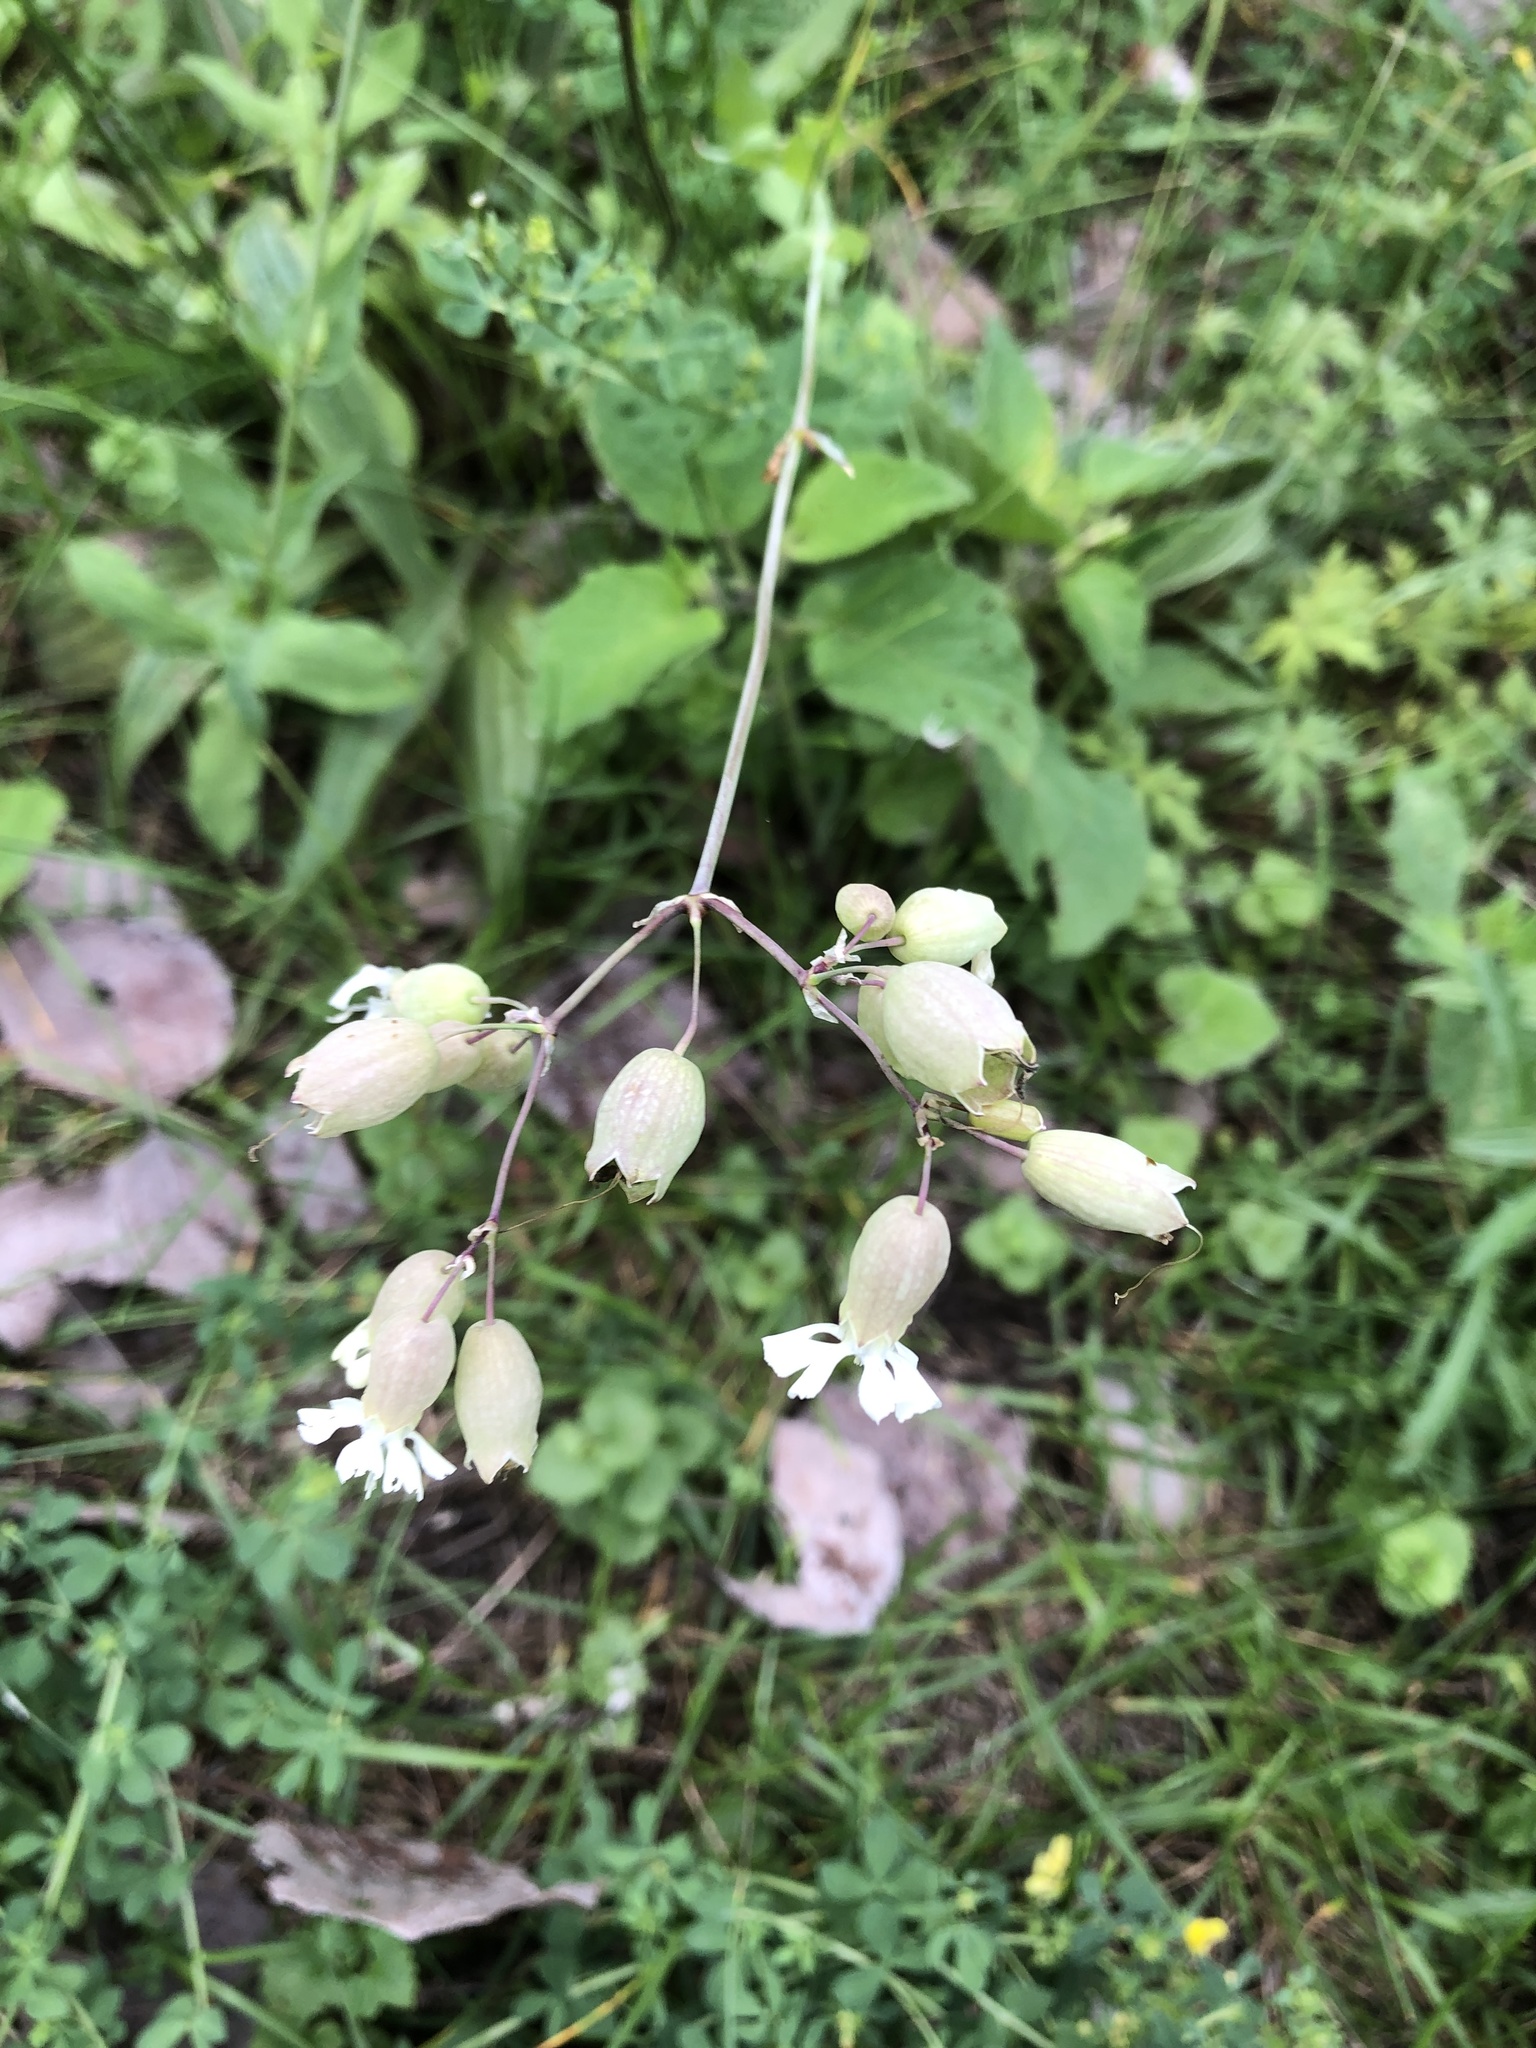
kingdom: Plantae
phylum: Tracheophyta
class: Magnoliopsida
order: Caryophyllales
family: Caryophyllaceae
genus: Silene
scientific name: Silene vulgaris
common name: Bladder campion
